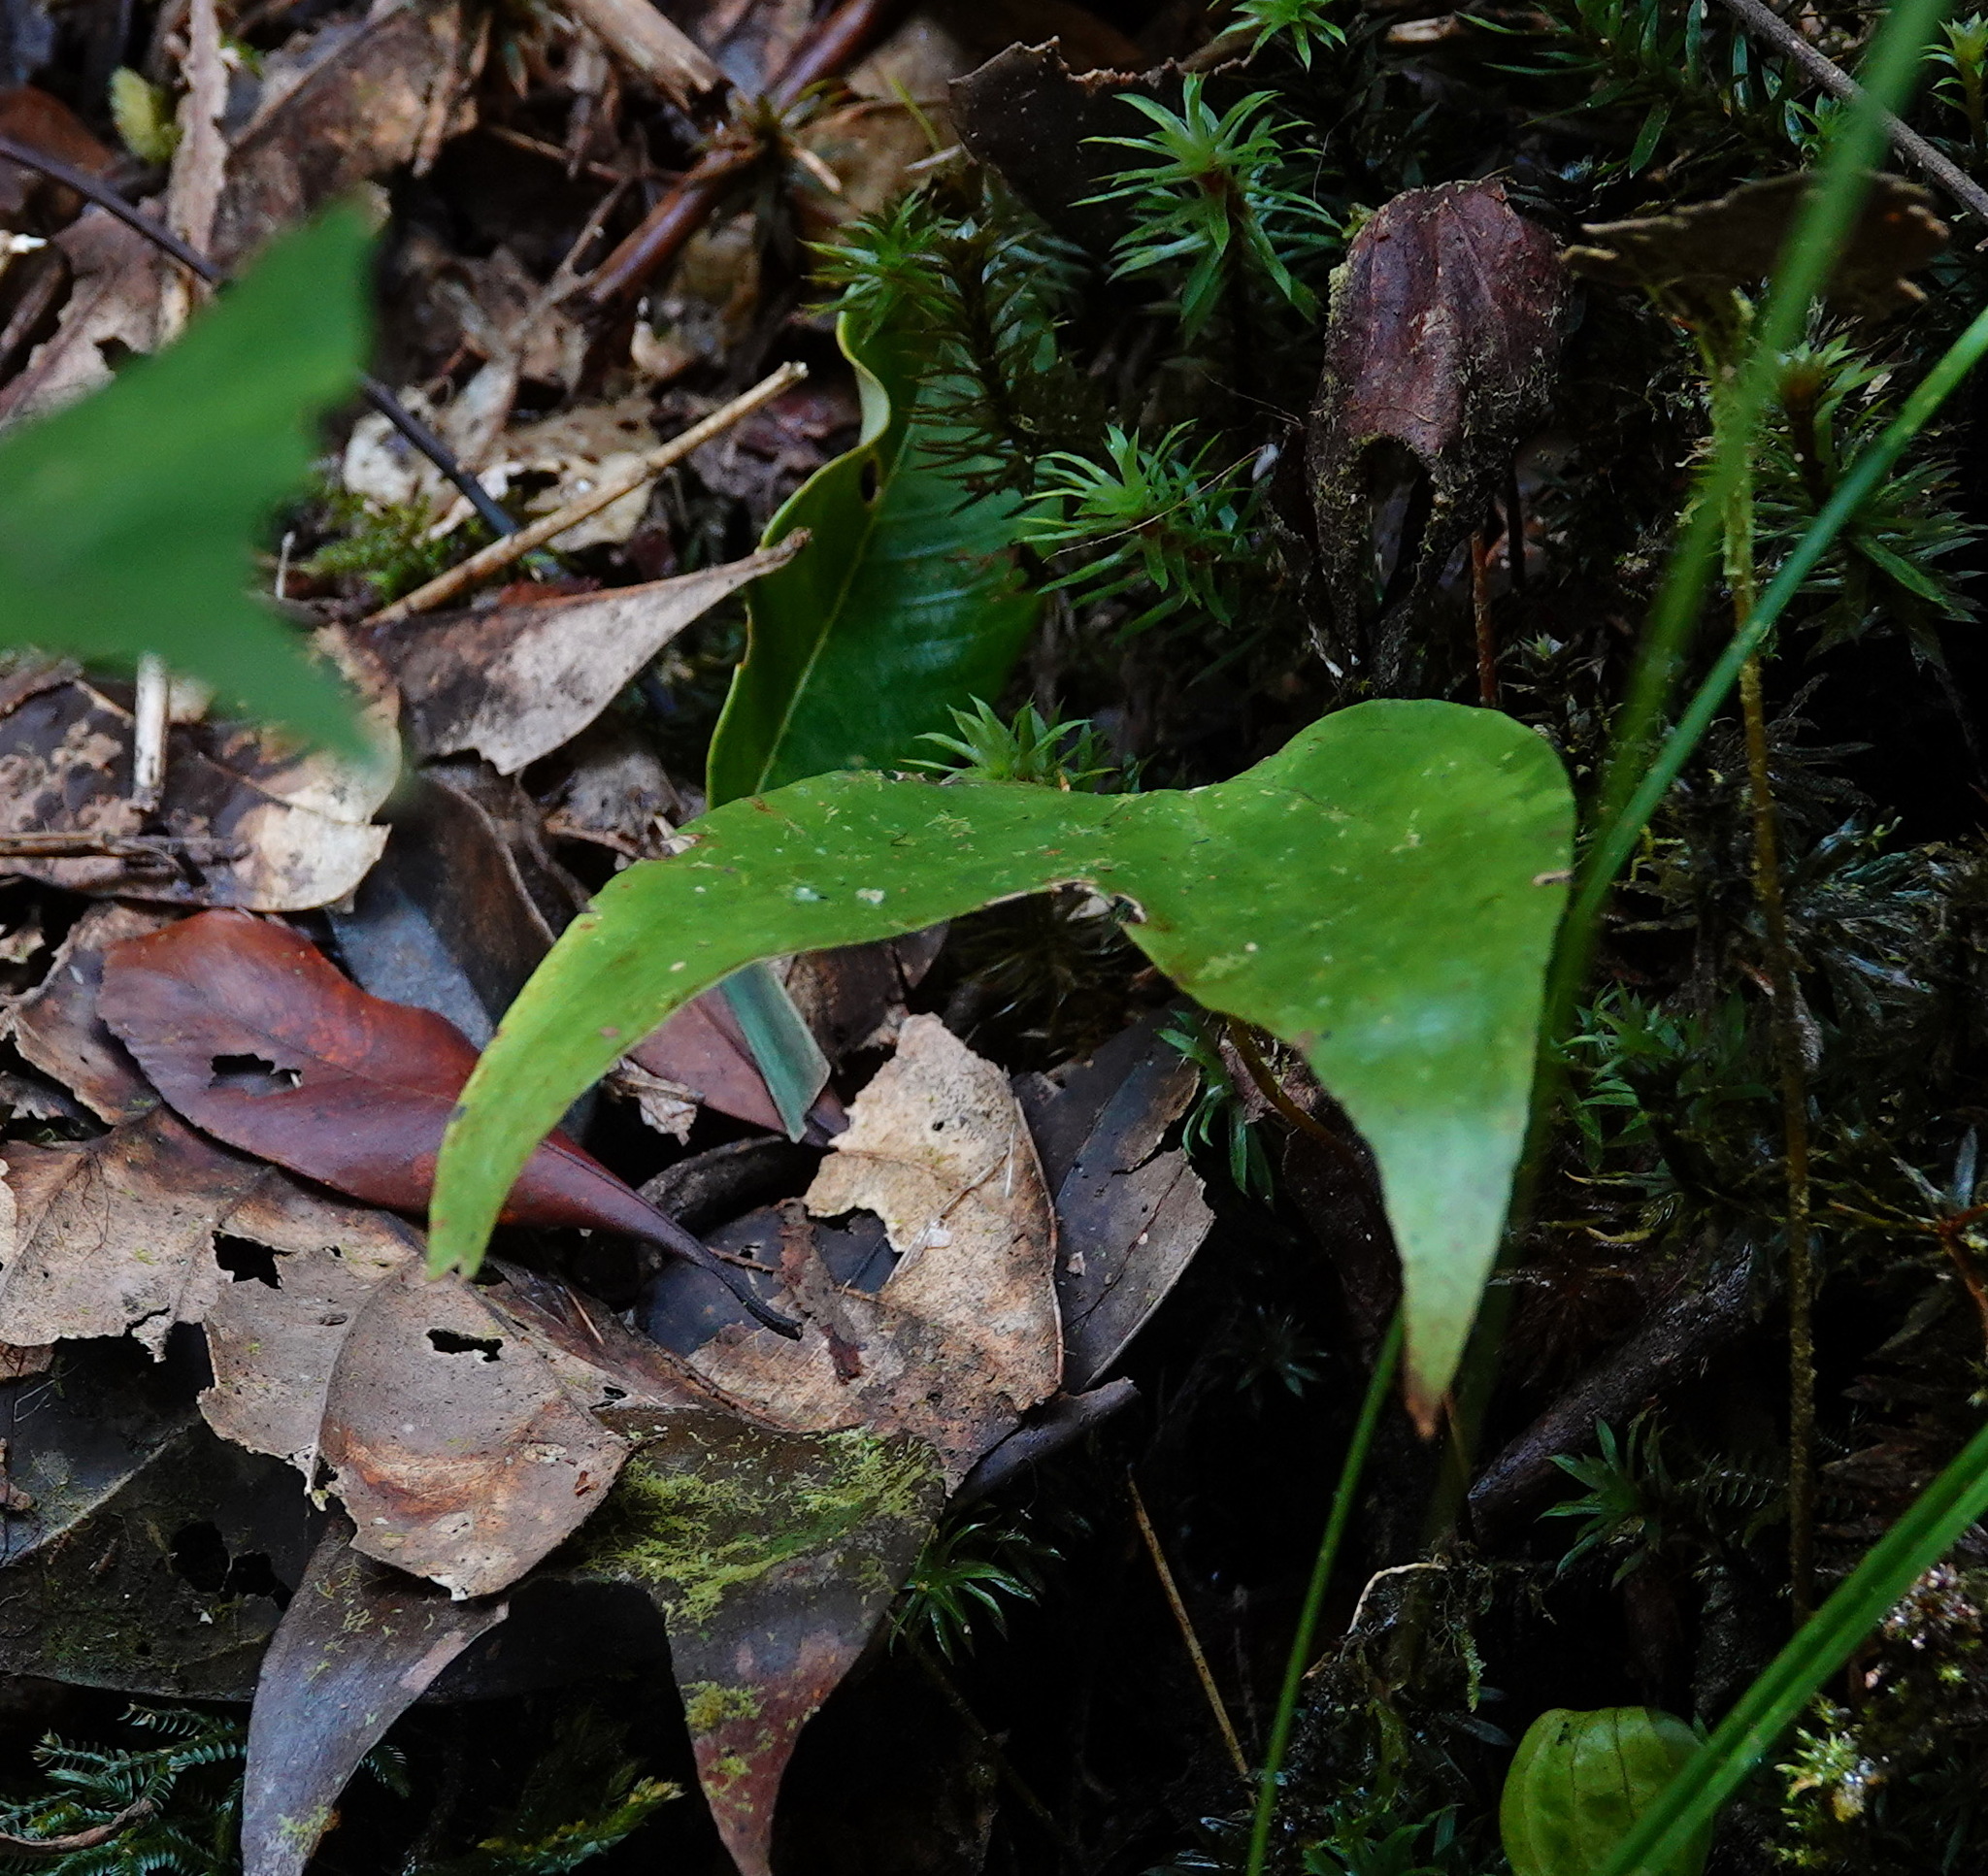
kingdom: Plantae
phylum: Tracheophyta
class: Polypodiopsida
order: Gleicheniales
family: Dipteridaceae
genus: Cheiropleuria
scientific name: Cheiropleuria bicuspis
